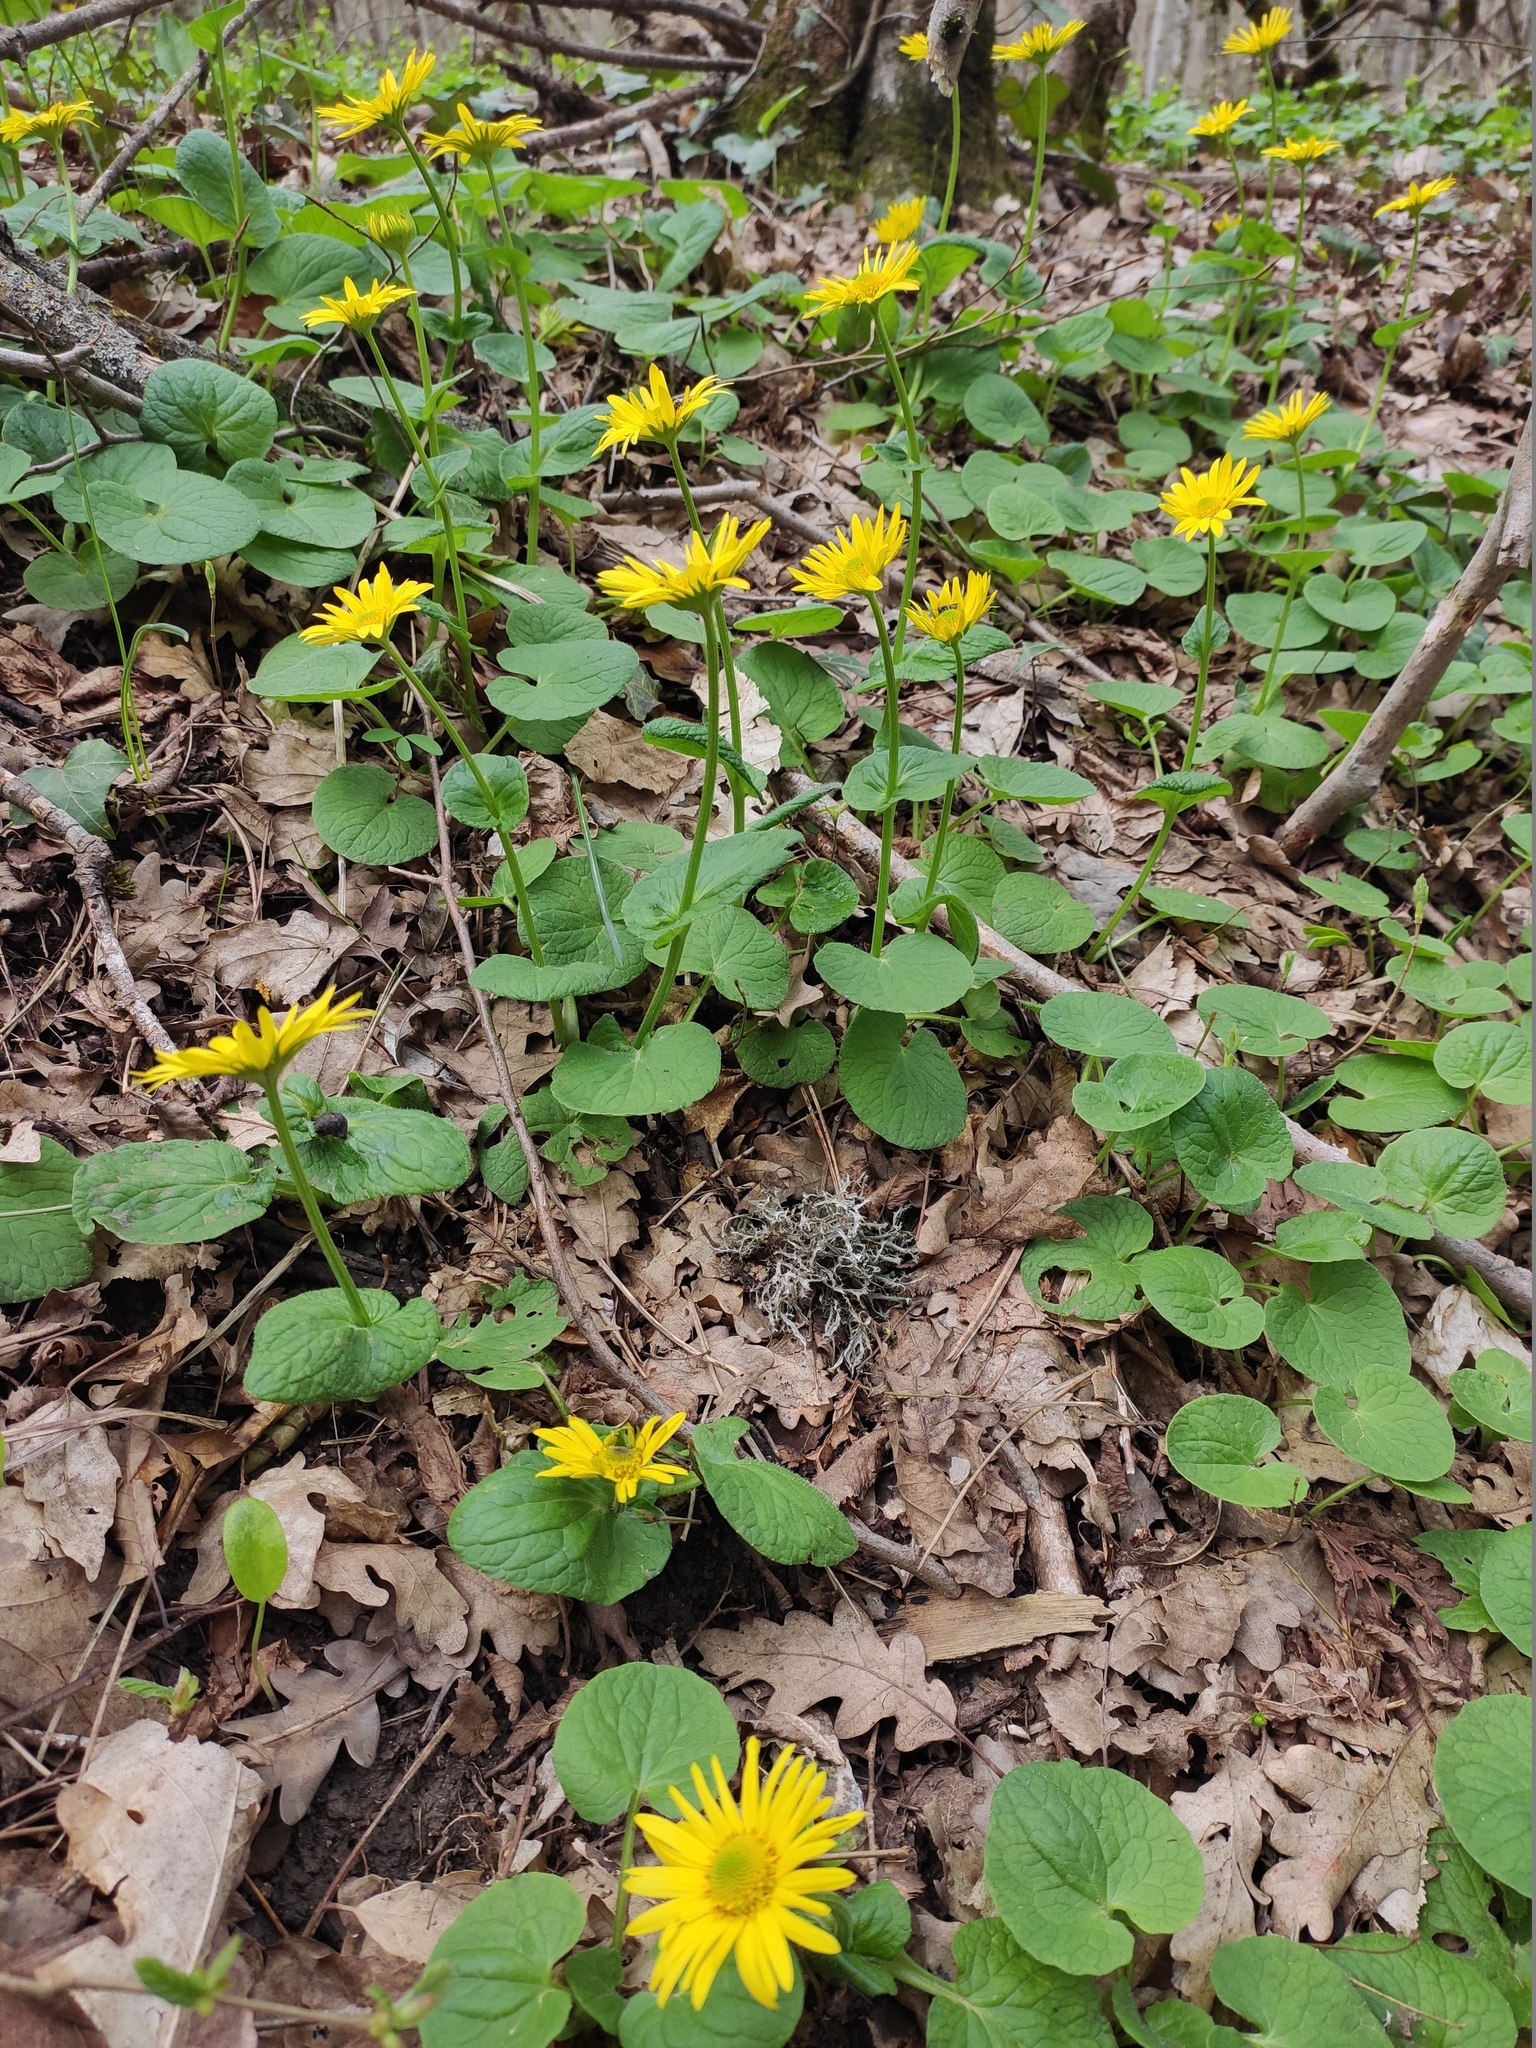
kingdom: Plantae
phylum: Tracheophyta
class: Magnoliopsida
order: Asterales
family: Asteraceae
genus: Doronicum
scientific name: Doronicum
